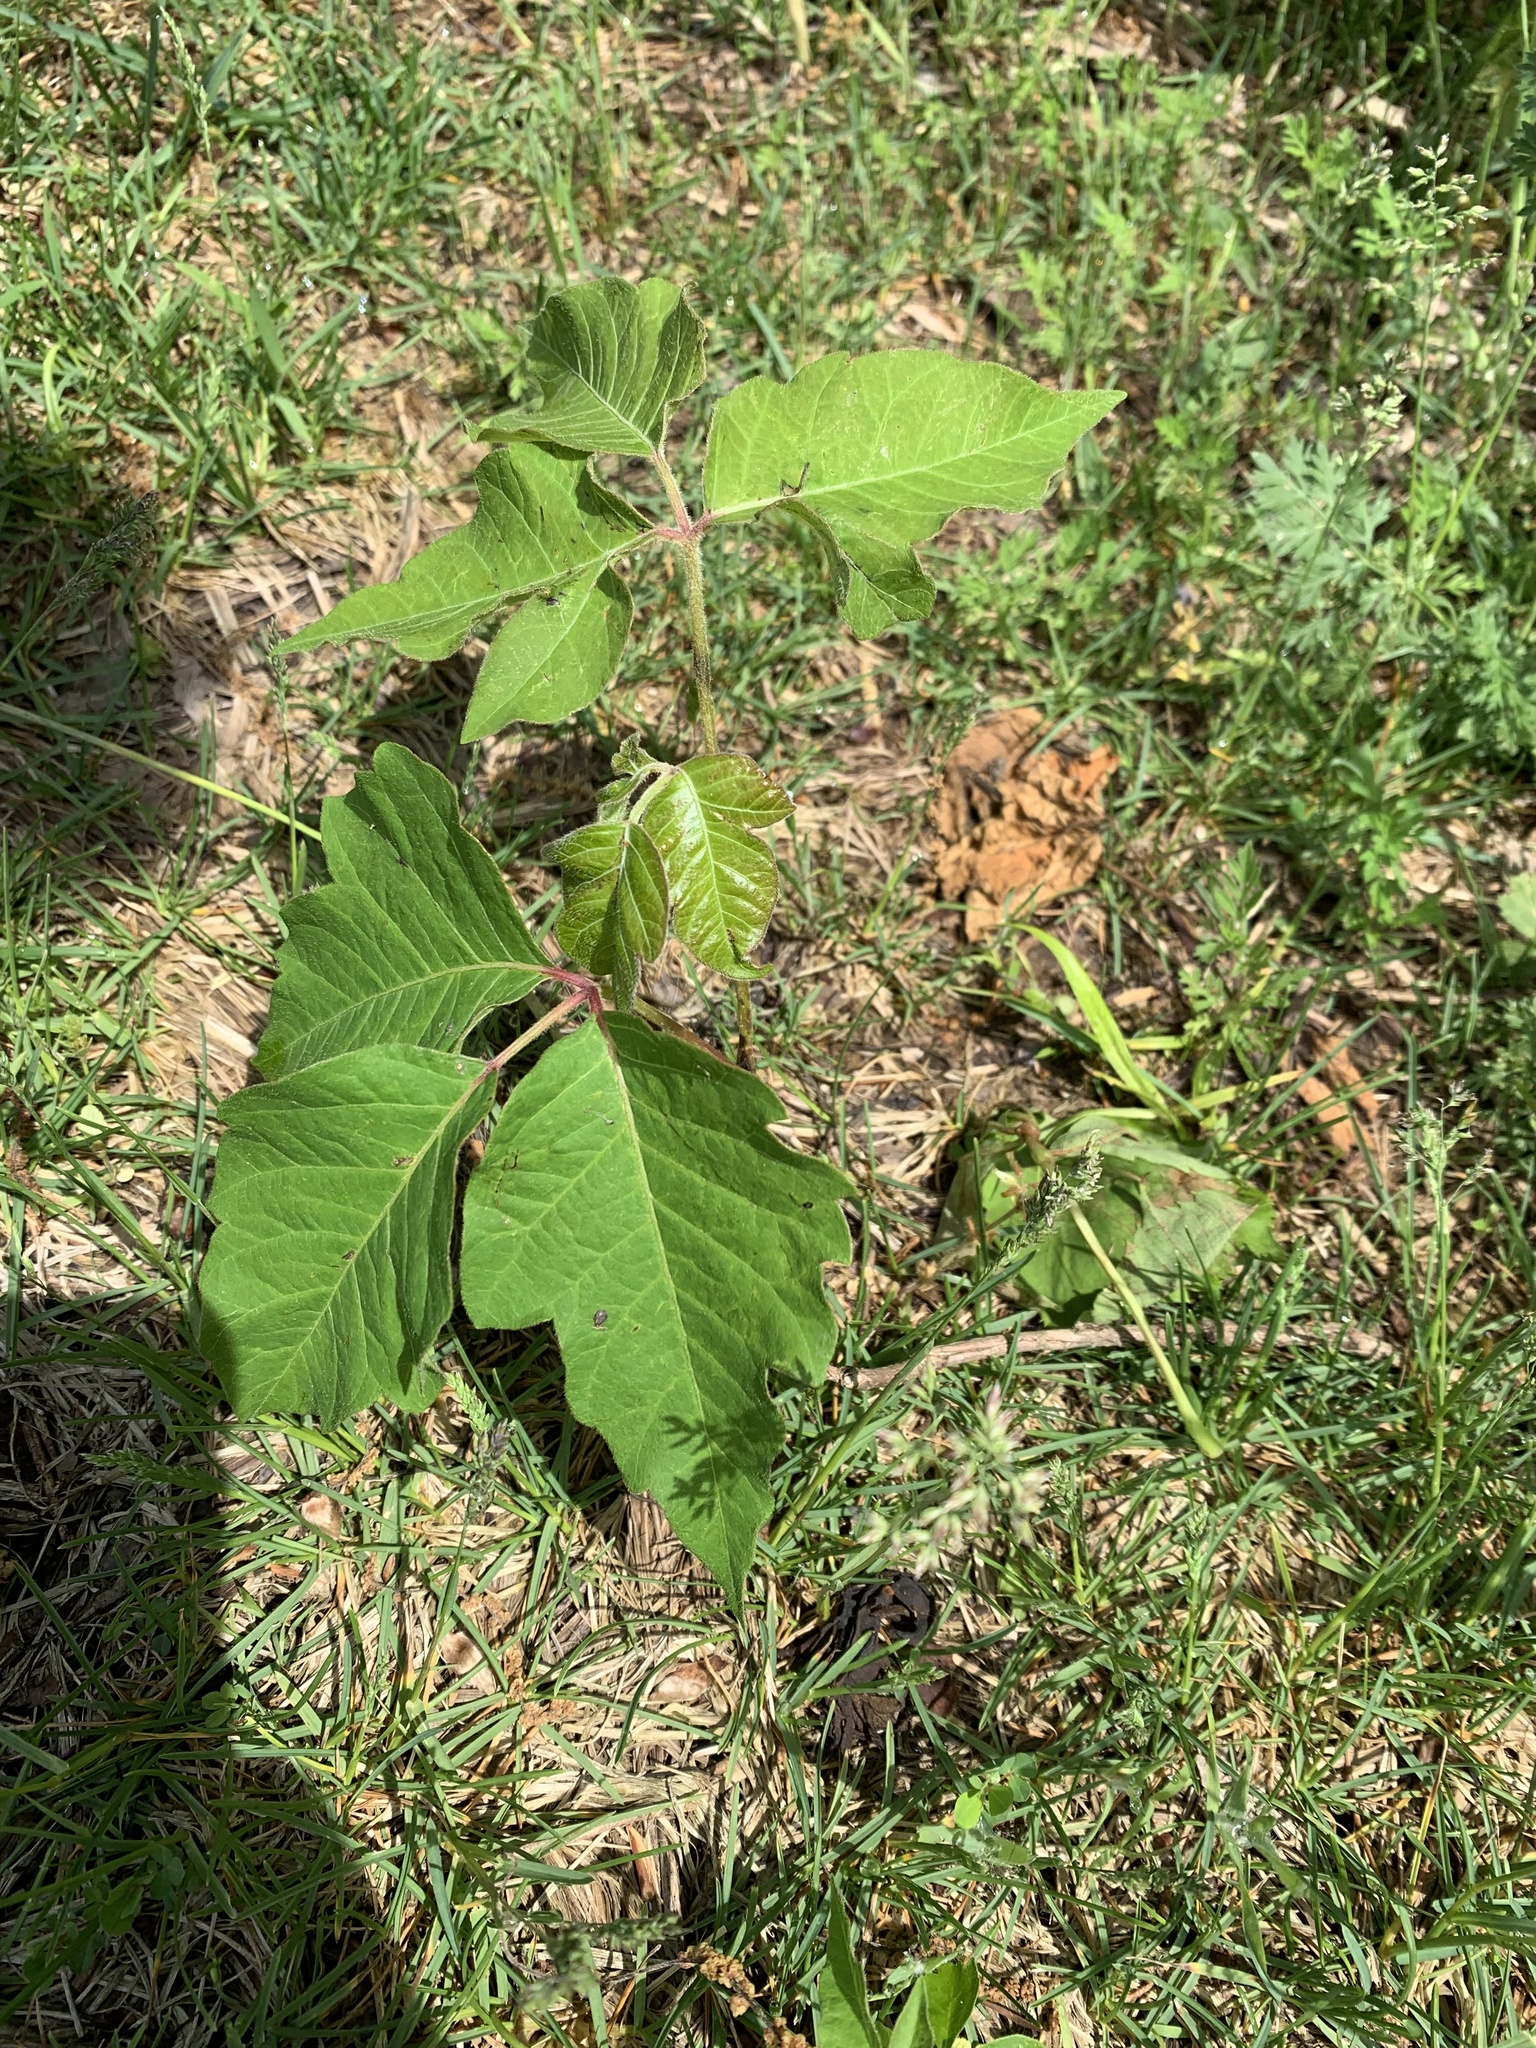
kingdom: Plantae
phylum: Tracheophyta
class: Magnoliopsida
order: Sapindales
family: Anacardiaceae
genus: Toxicodendron
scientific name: Toxicodendron radicans
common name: Poison ivy
